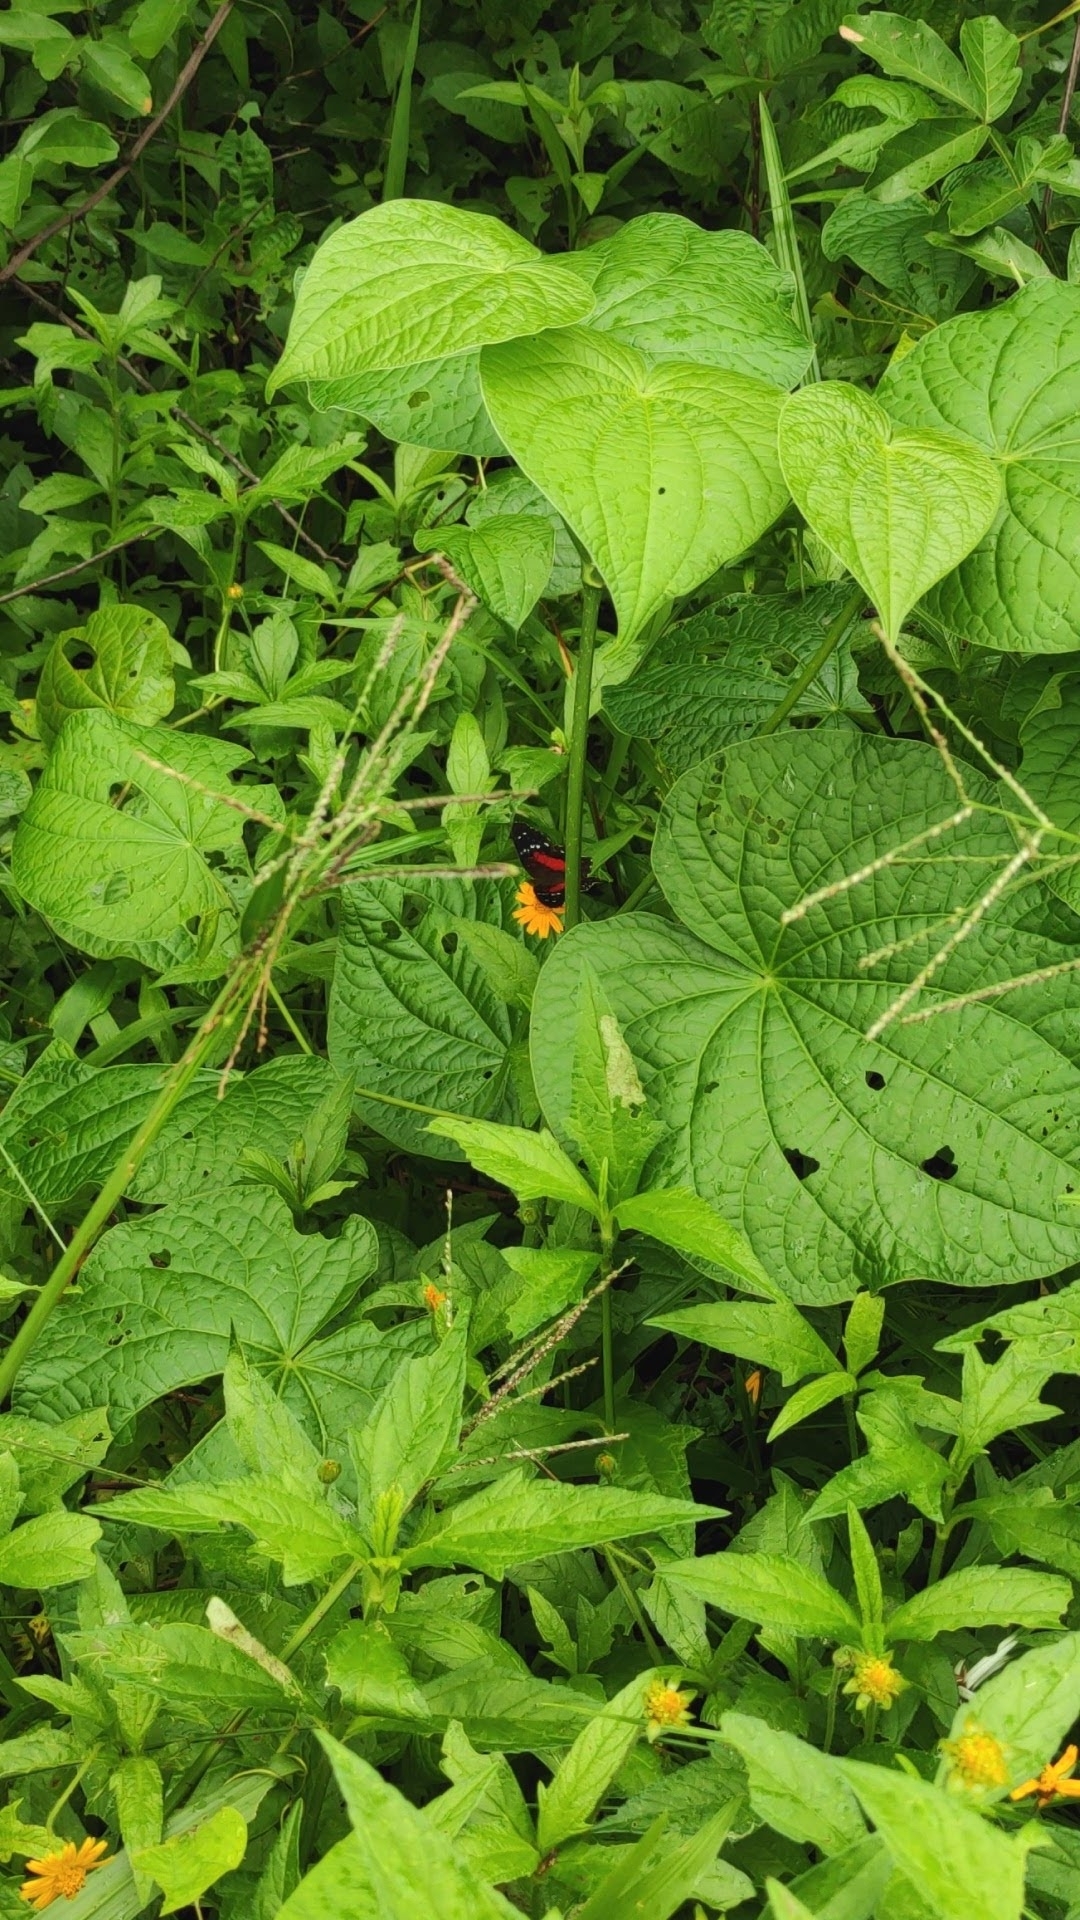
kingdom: Animalia
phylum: Arthropoda
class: Insecta
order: Lepidoptera
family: Nymphalidae
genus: Anartia
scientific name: Anartia amathea
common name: Red peacock
